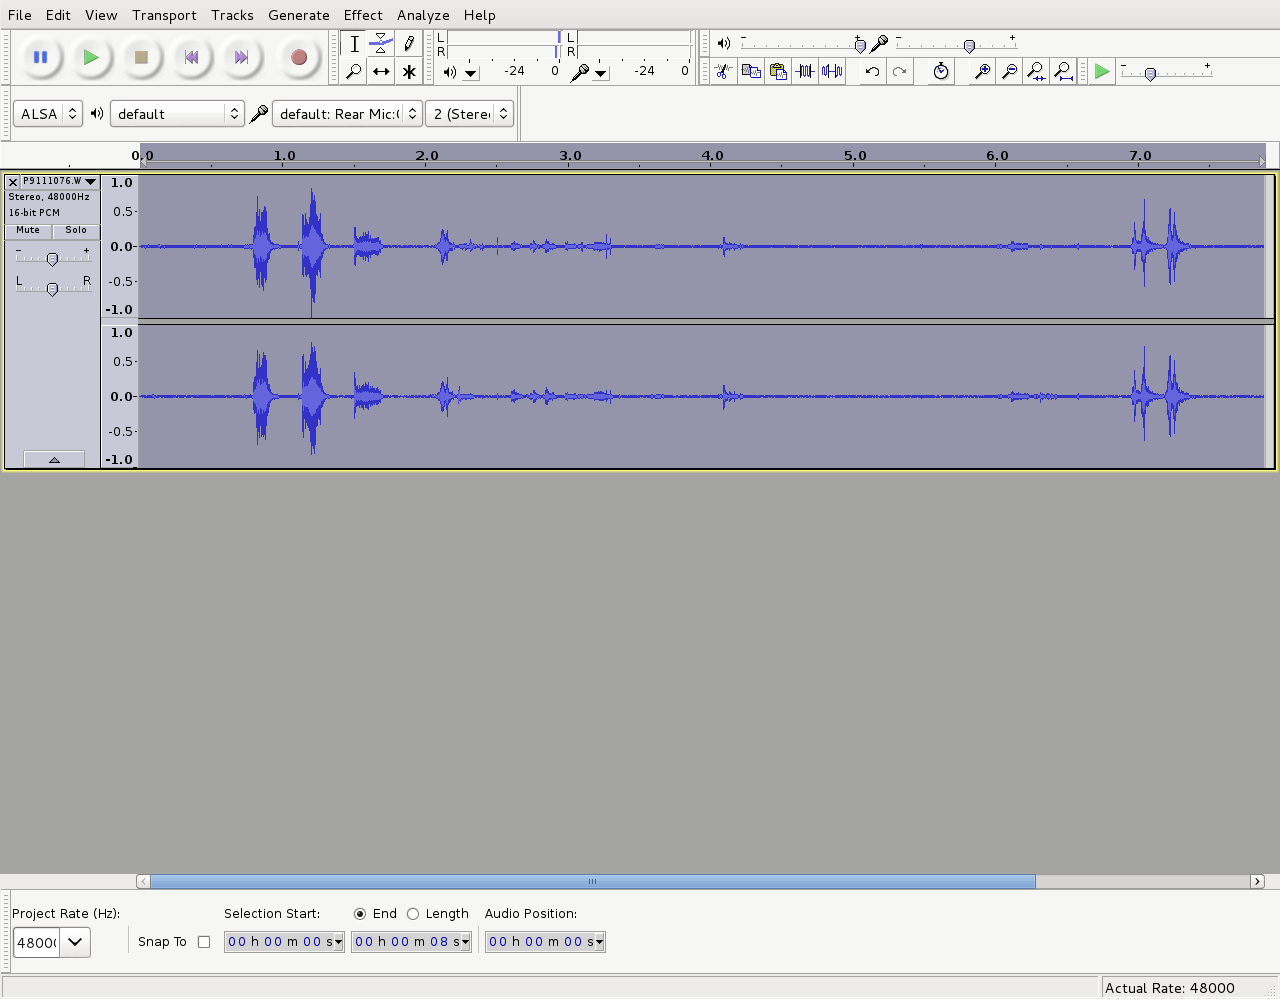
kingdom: Animalia
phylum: Chordata
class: Aves
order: Passeriformes
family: Meliphagidae
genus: Prosthemadera
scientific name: Prosthemadera novaeseelandiae
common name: Tui
